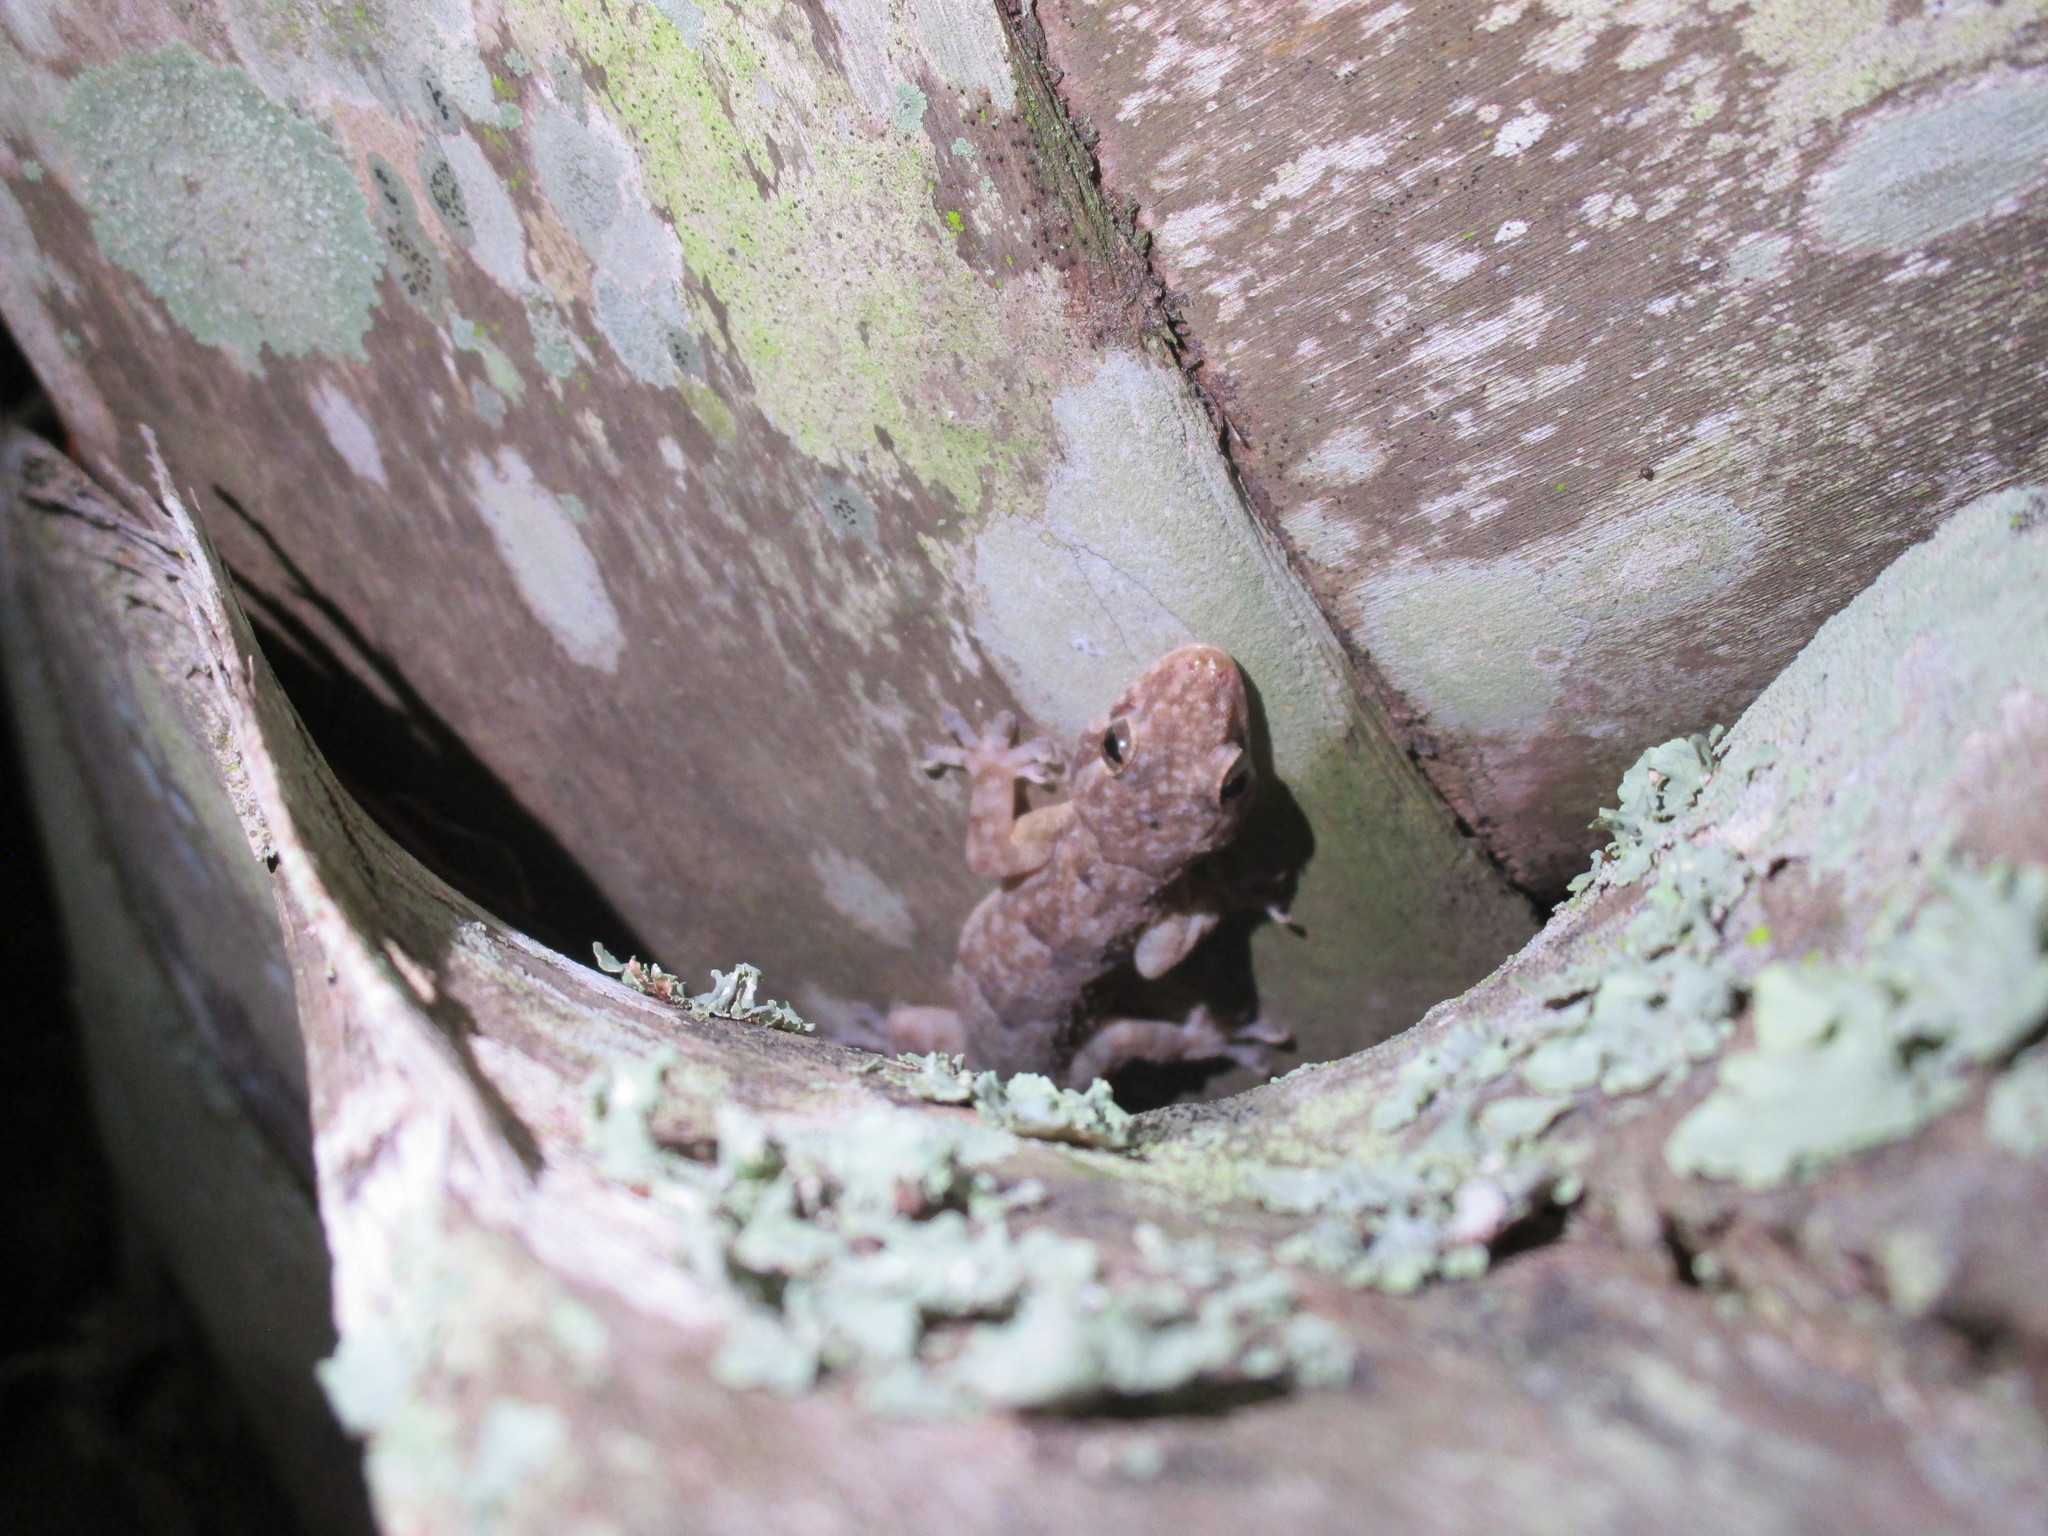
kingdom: Animalia
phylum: Chordata
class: Squamata
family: Gekkonidae
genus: Hemidactylus
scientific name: Hemidactylus mabouia
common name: House gecko
